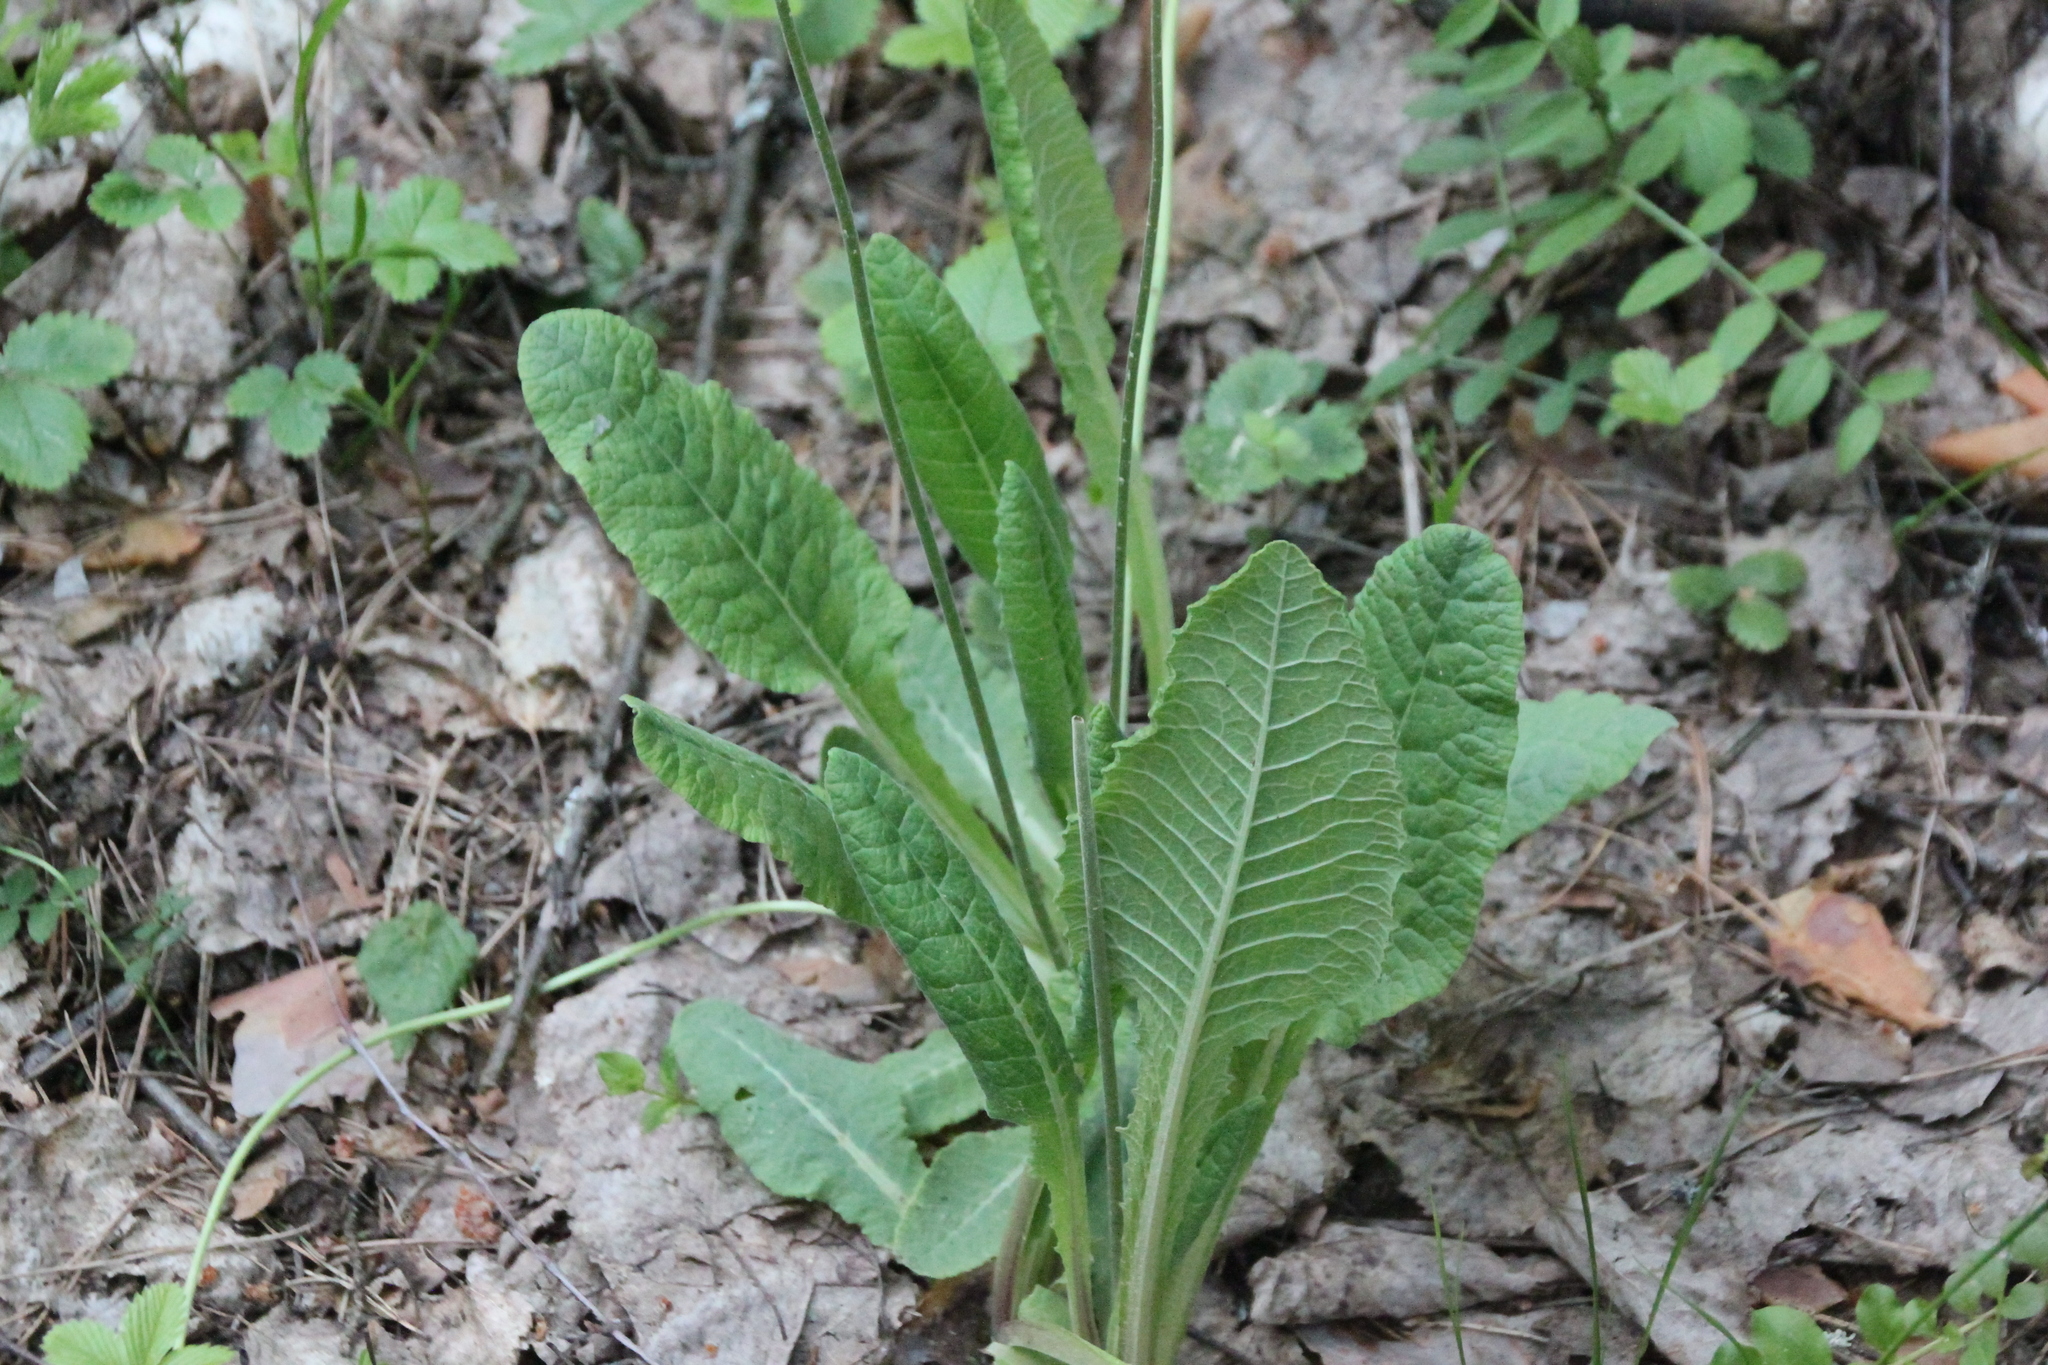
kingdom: Plantae
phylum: Tracheophyta
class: Magnoliopsida
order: Ericales
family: Primulaceae
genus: Primula
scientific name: Primula veris
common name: Cowslip
